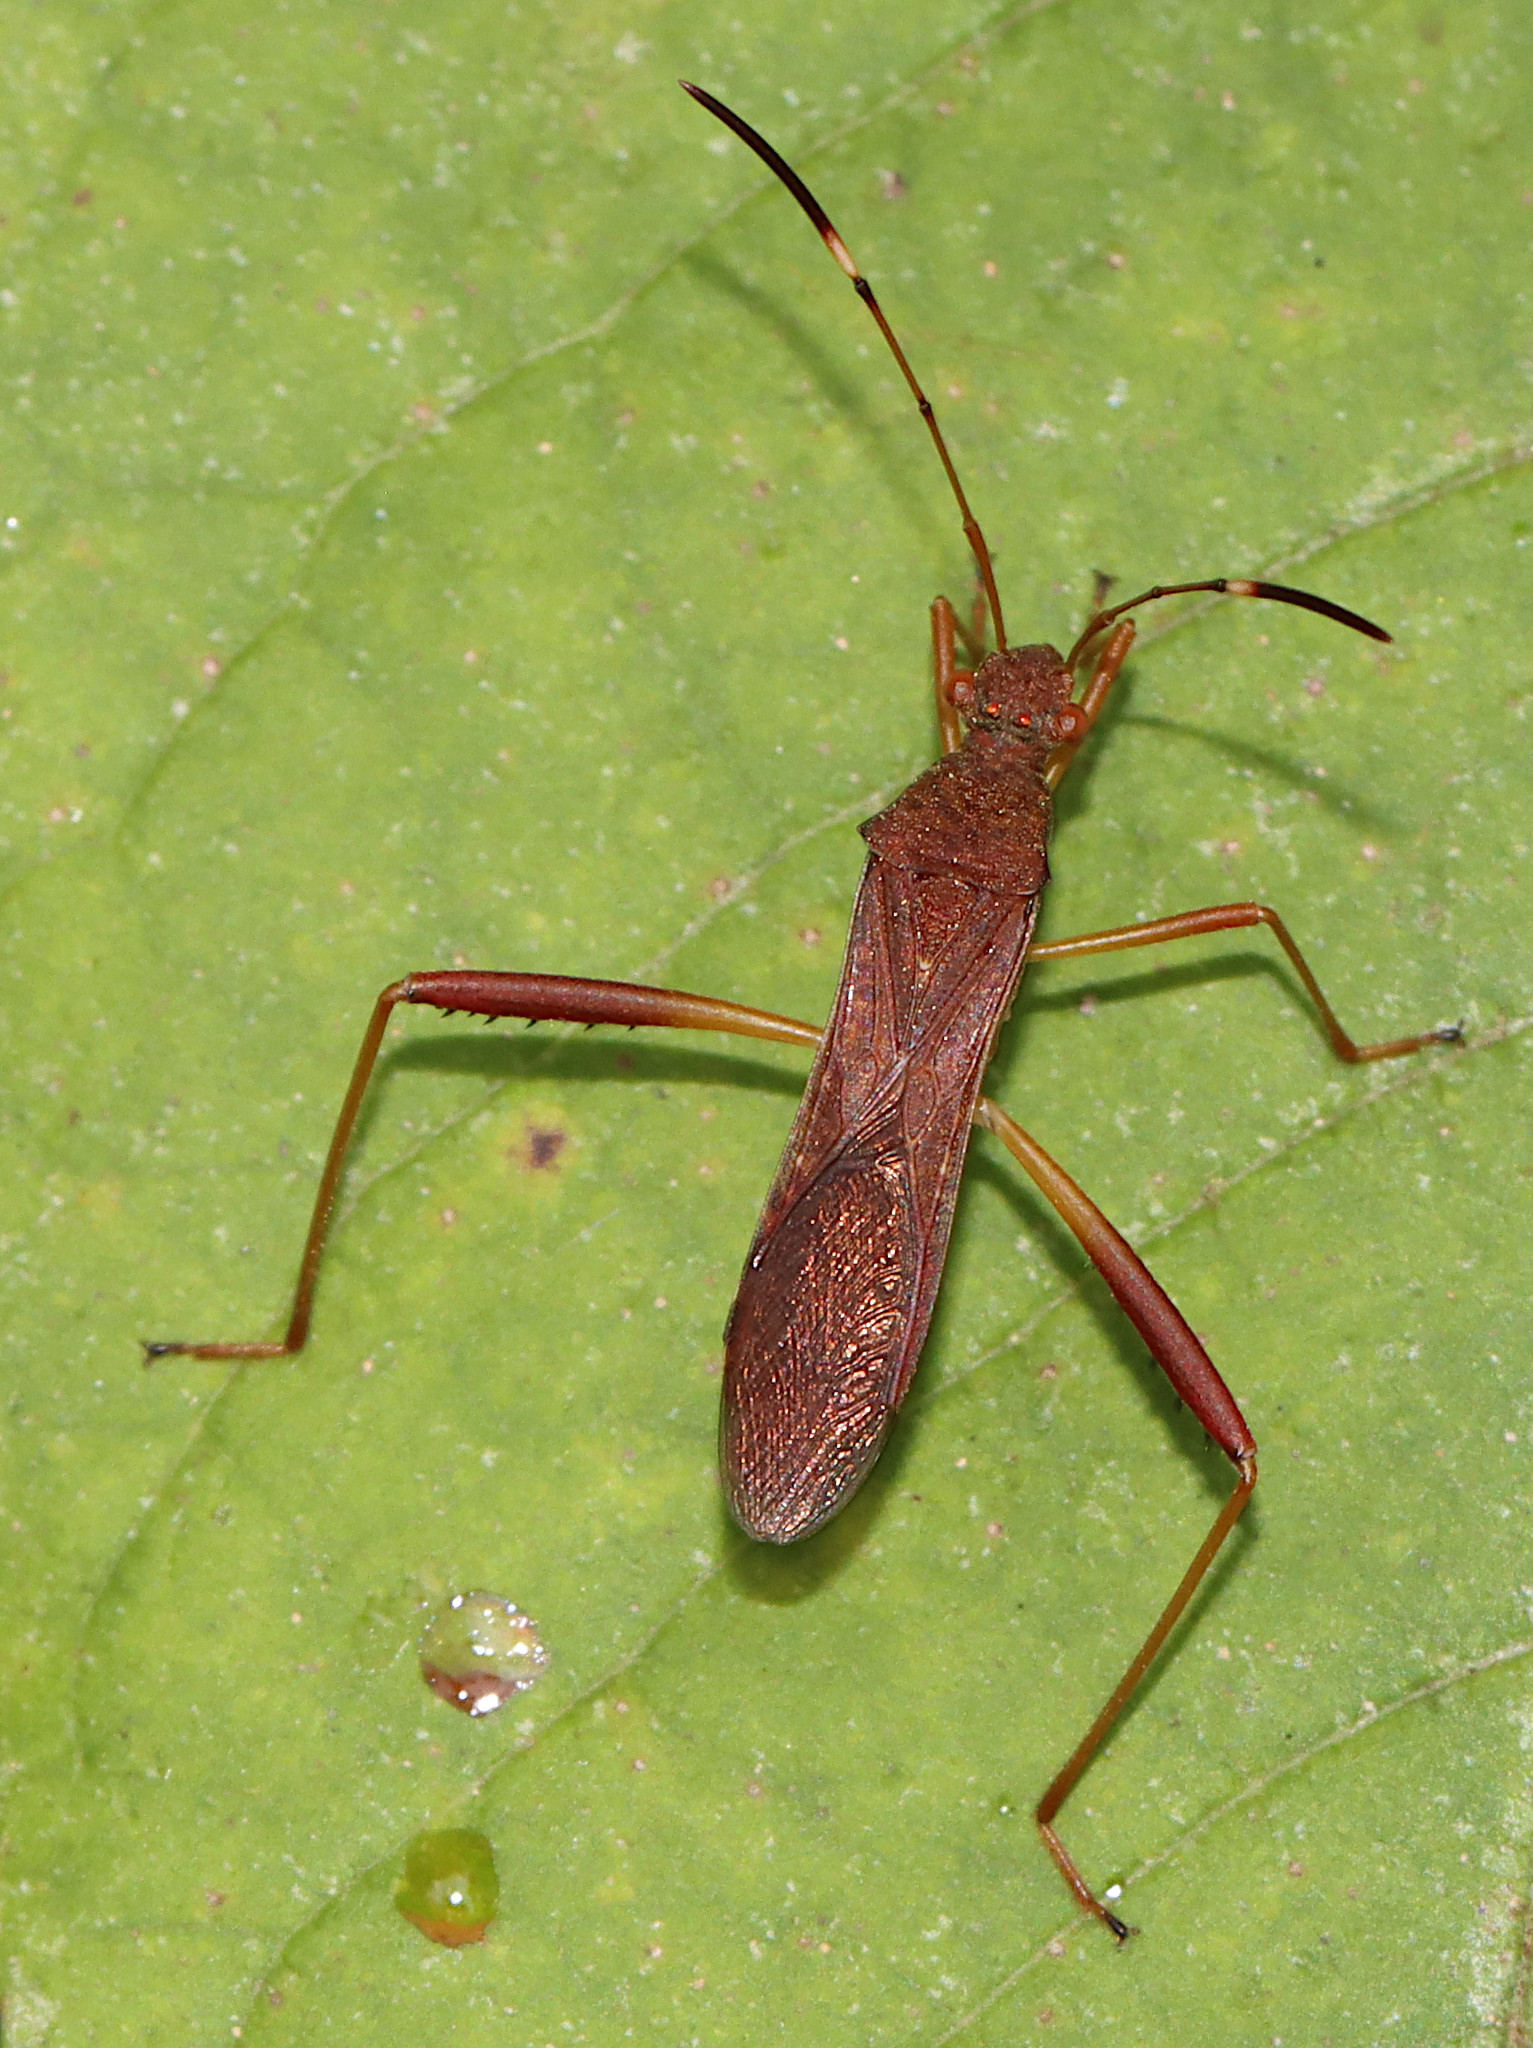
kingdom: Animalia
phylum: Arthropoda
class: Insecta
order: Hemiptera
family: Alydidae
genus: Megalotomus
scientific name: Megalotomus quinquespinosus
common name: Lupine bug
